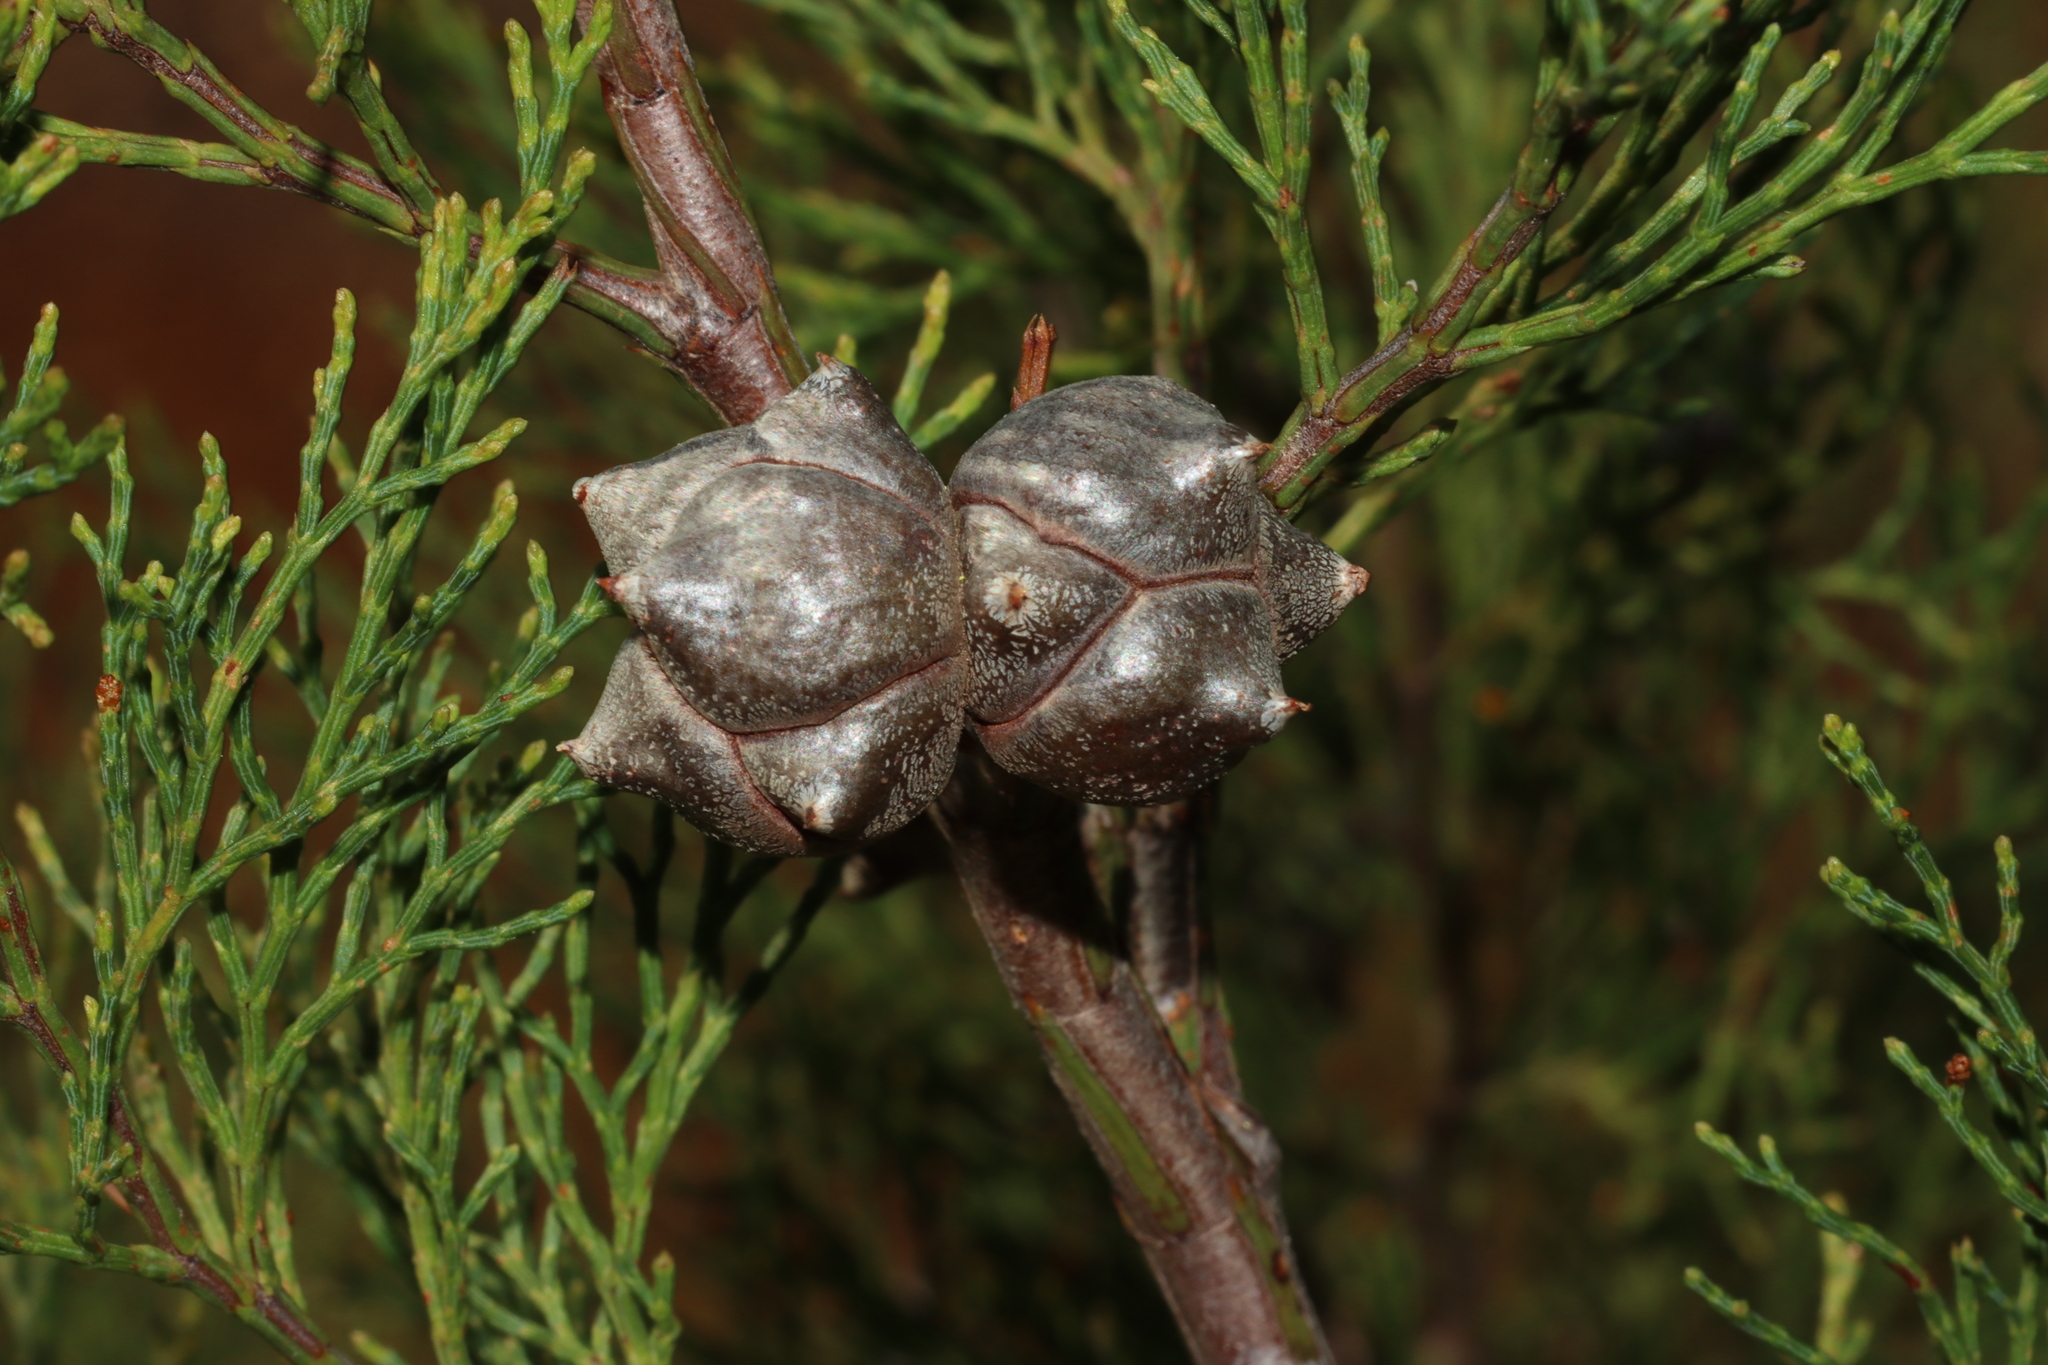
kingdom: Plantae
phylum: Tracheophyta
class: Pinopsida
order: Pinales
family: Cupressaceae
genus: Callitris
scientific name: Callitris rhomboidea
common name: Illawara mountain pine
